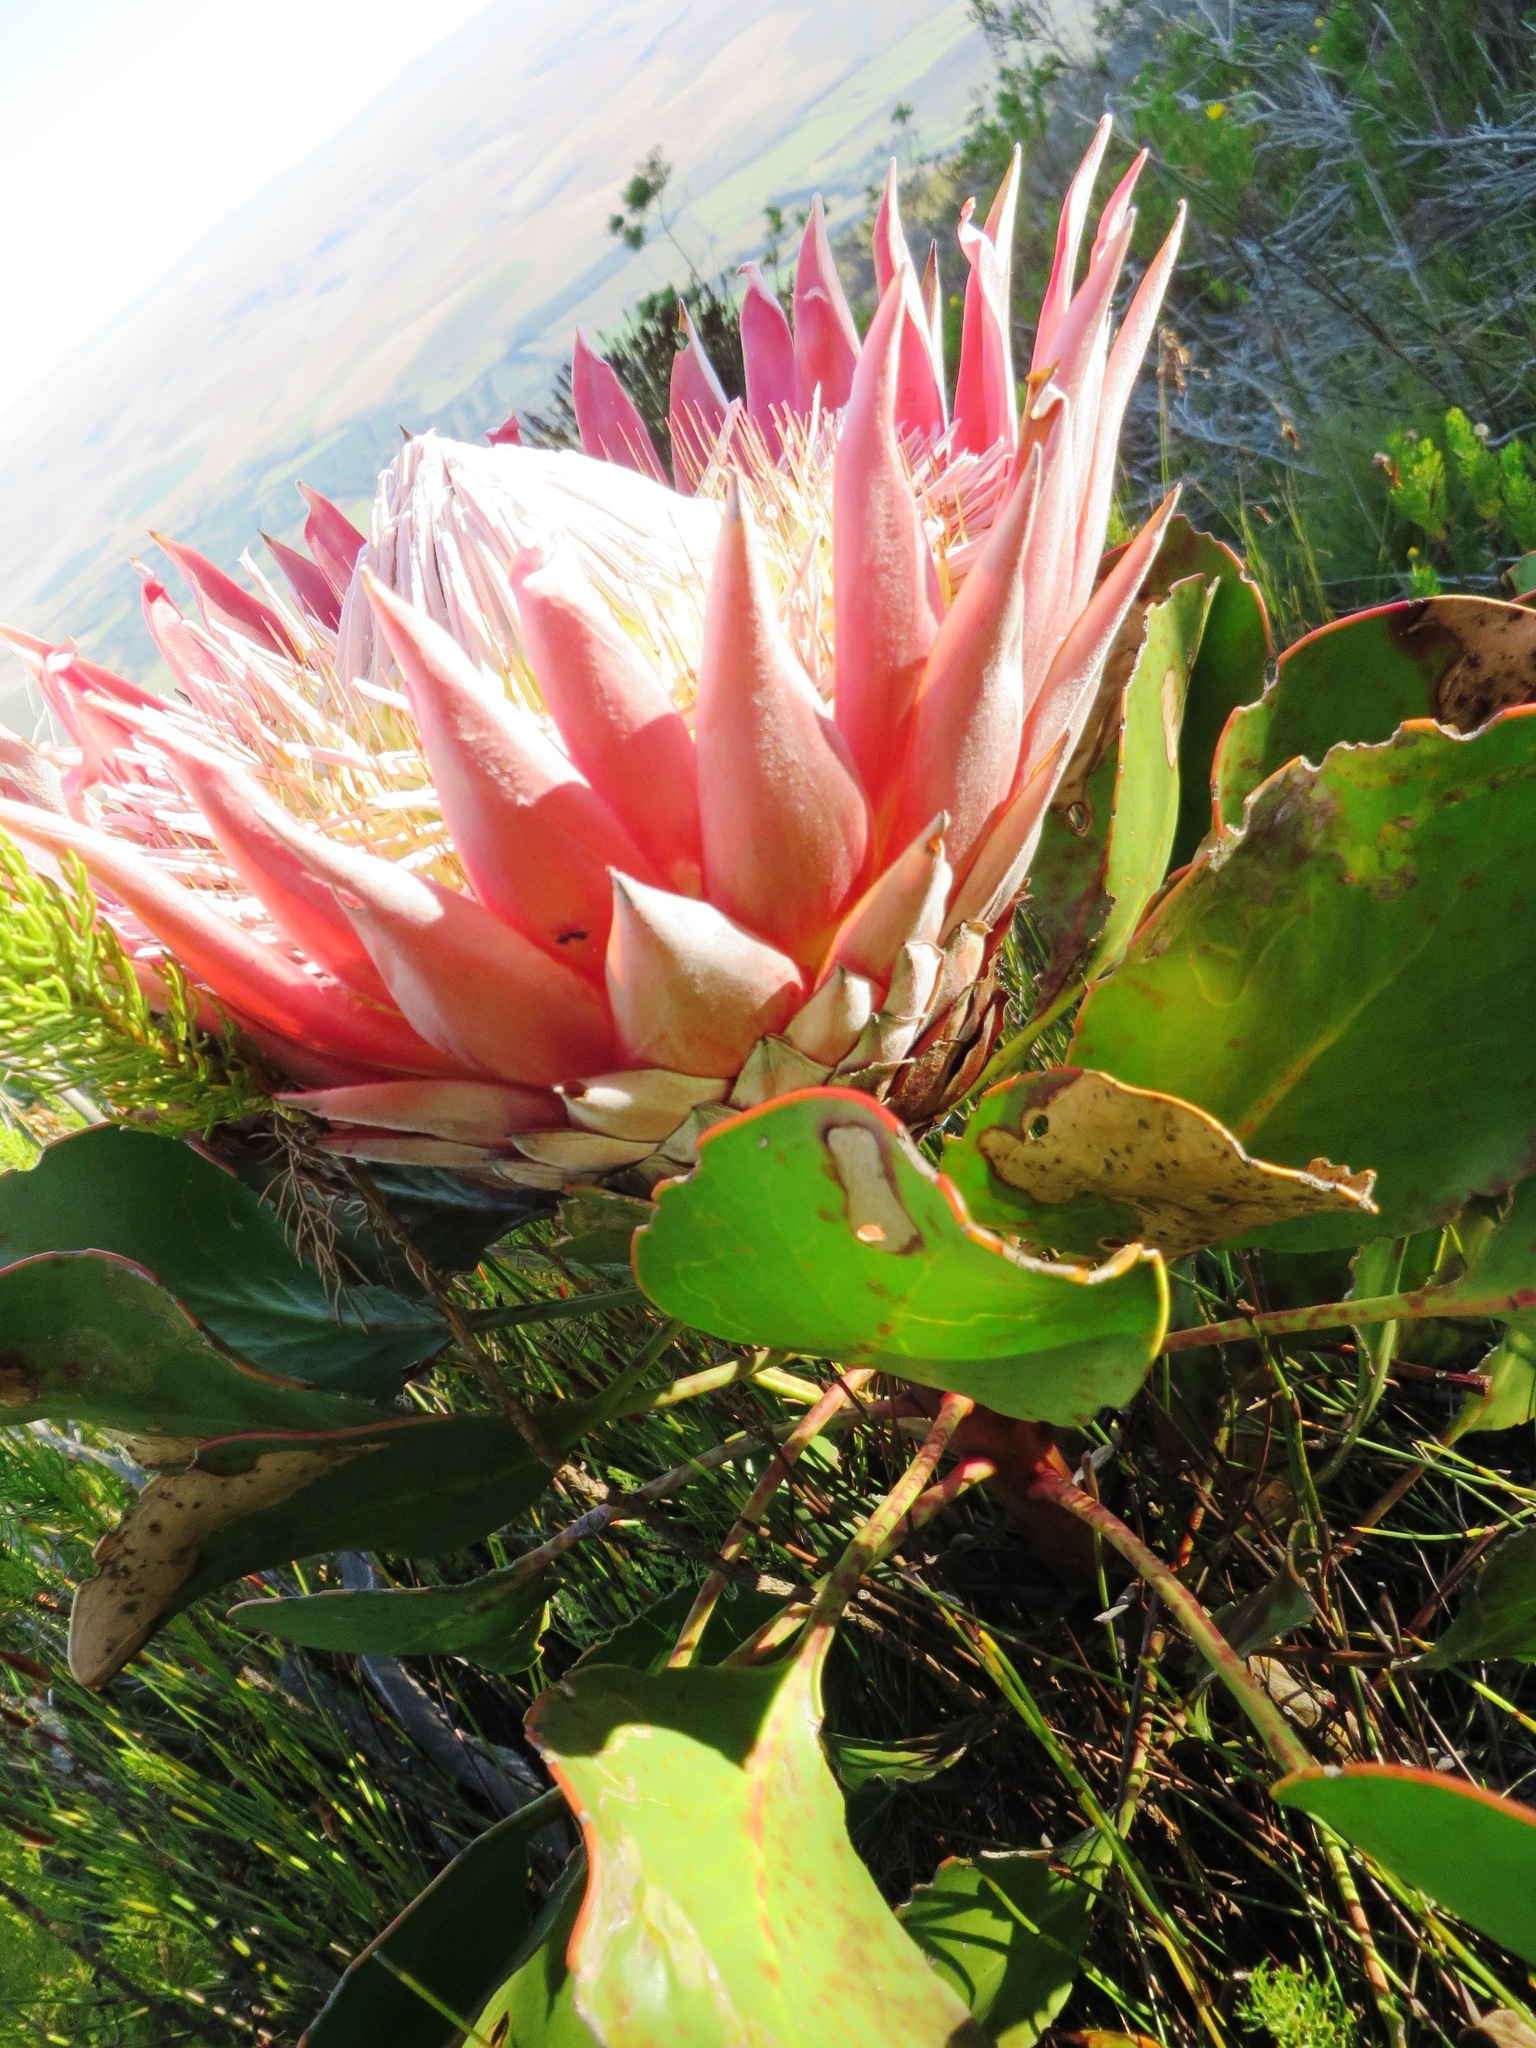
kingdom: Plantae
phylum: Tracheophyta
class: Magnoliopsida
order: Proteales
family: Proteaceae
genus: Protea
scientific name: Protea cynaroides
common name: King protea
